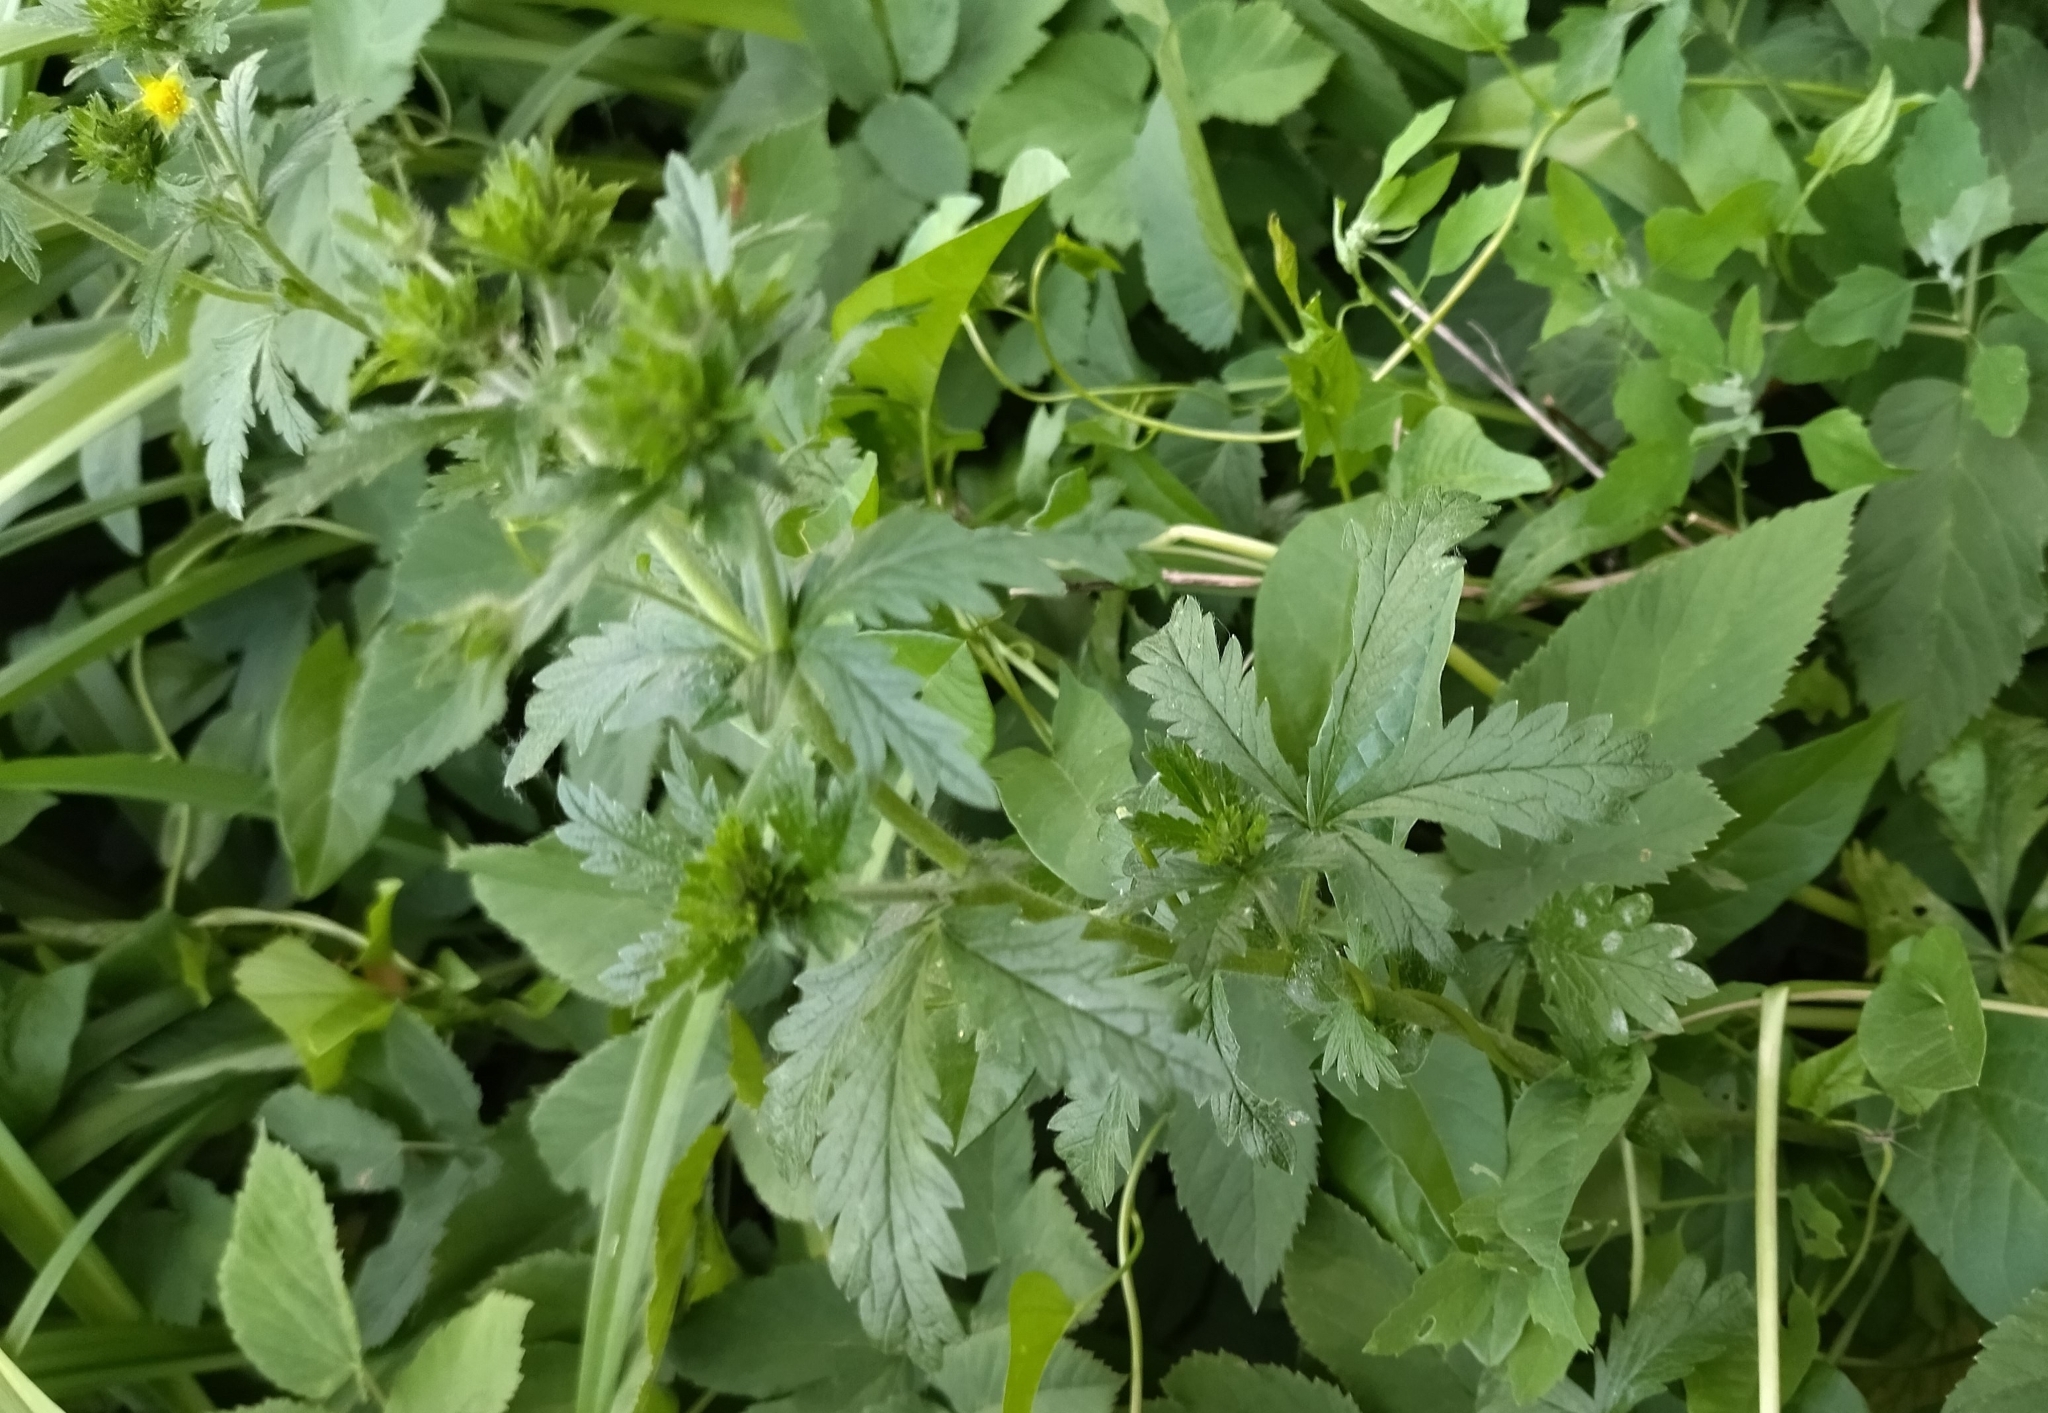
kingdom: Plantae
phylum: Tracheophyta
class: Magnoliopsida
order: Rosales
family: Rosaceae
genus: Potentilla
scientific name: Potentilla norvegica
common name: Ternate-leaved cinquefoil
